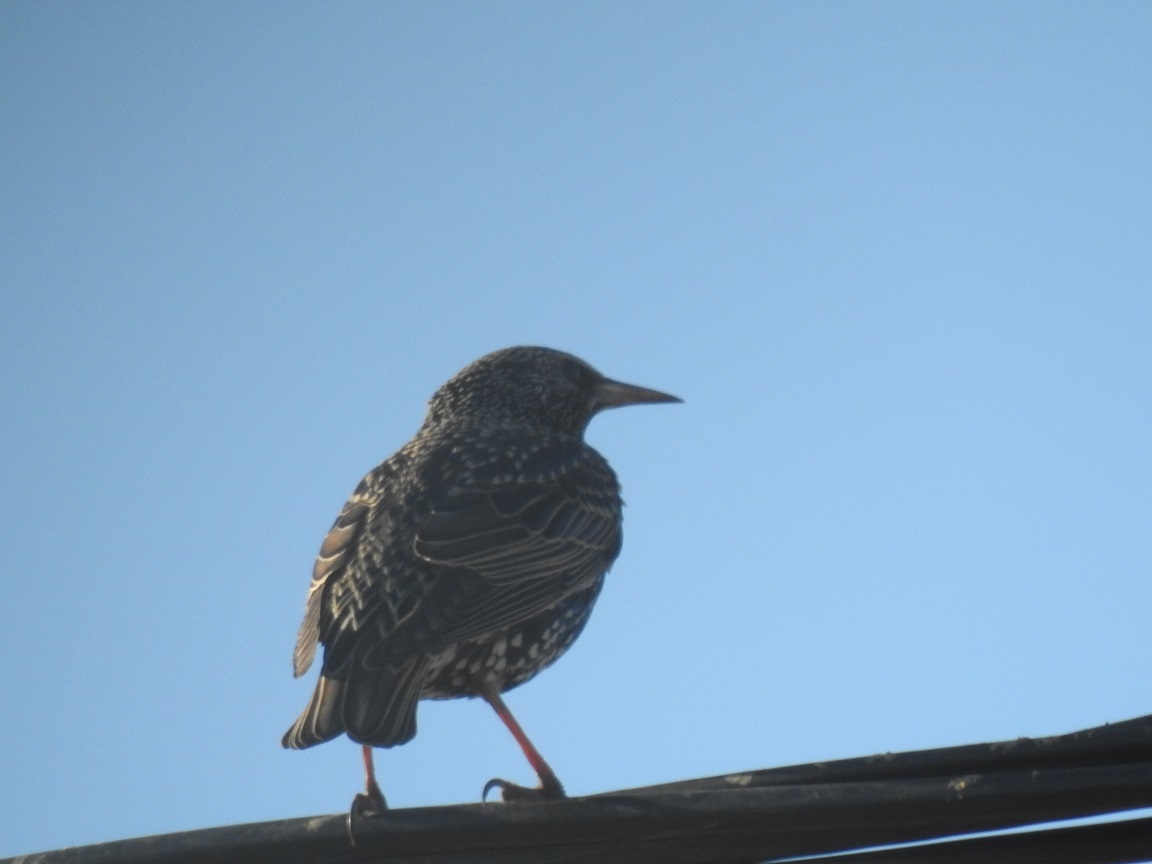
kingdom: Animalia
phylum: Chordata
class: Aves
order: Passeriformes
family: Sturnidae
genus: Sturnus
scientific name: Sturnus vulgaris
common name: Common starling
